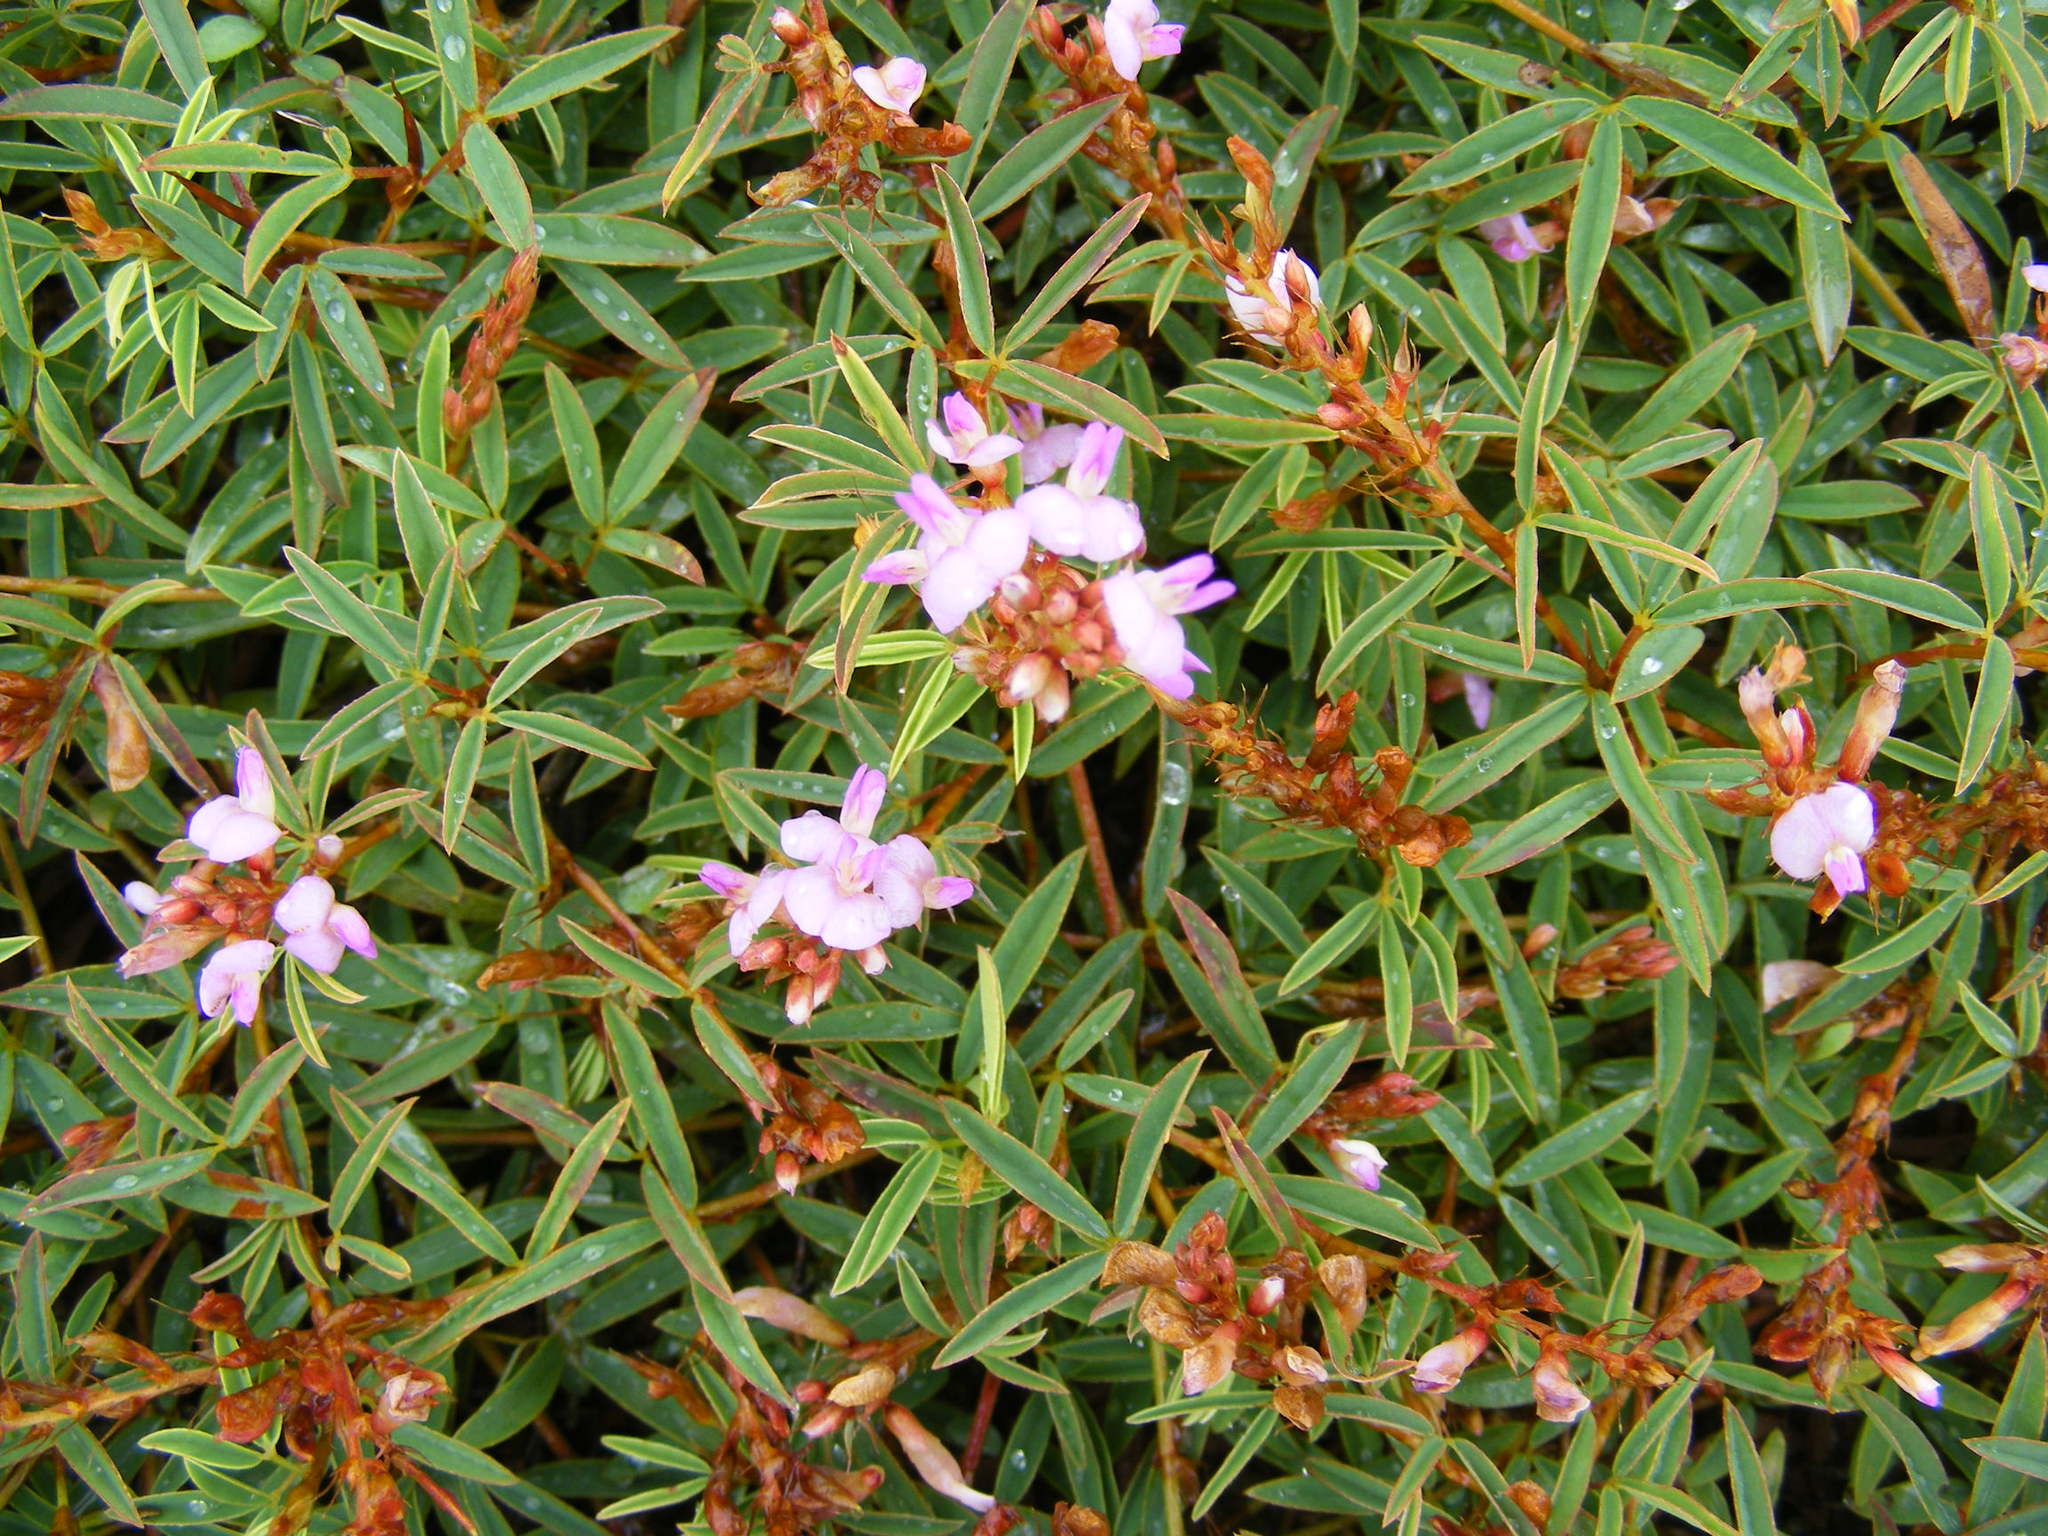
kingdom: Plantae
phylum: Tracheophyta
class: Magnoliopsida
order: Fabales
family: Fabaceae
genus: Aphyllodium
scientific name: Aphyllodium biarticulatum
